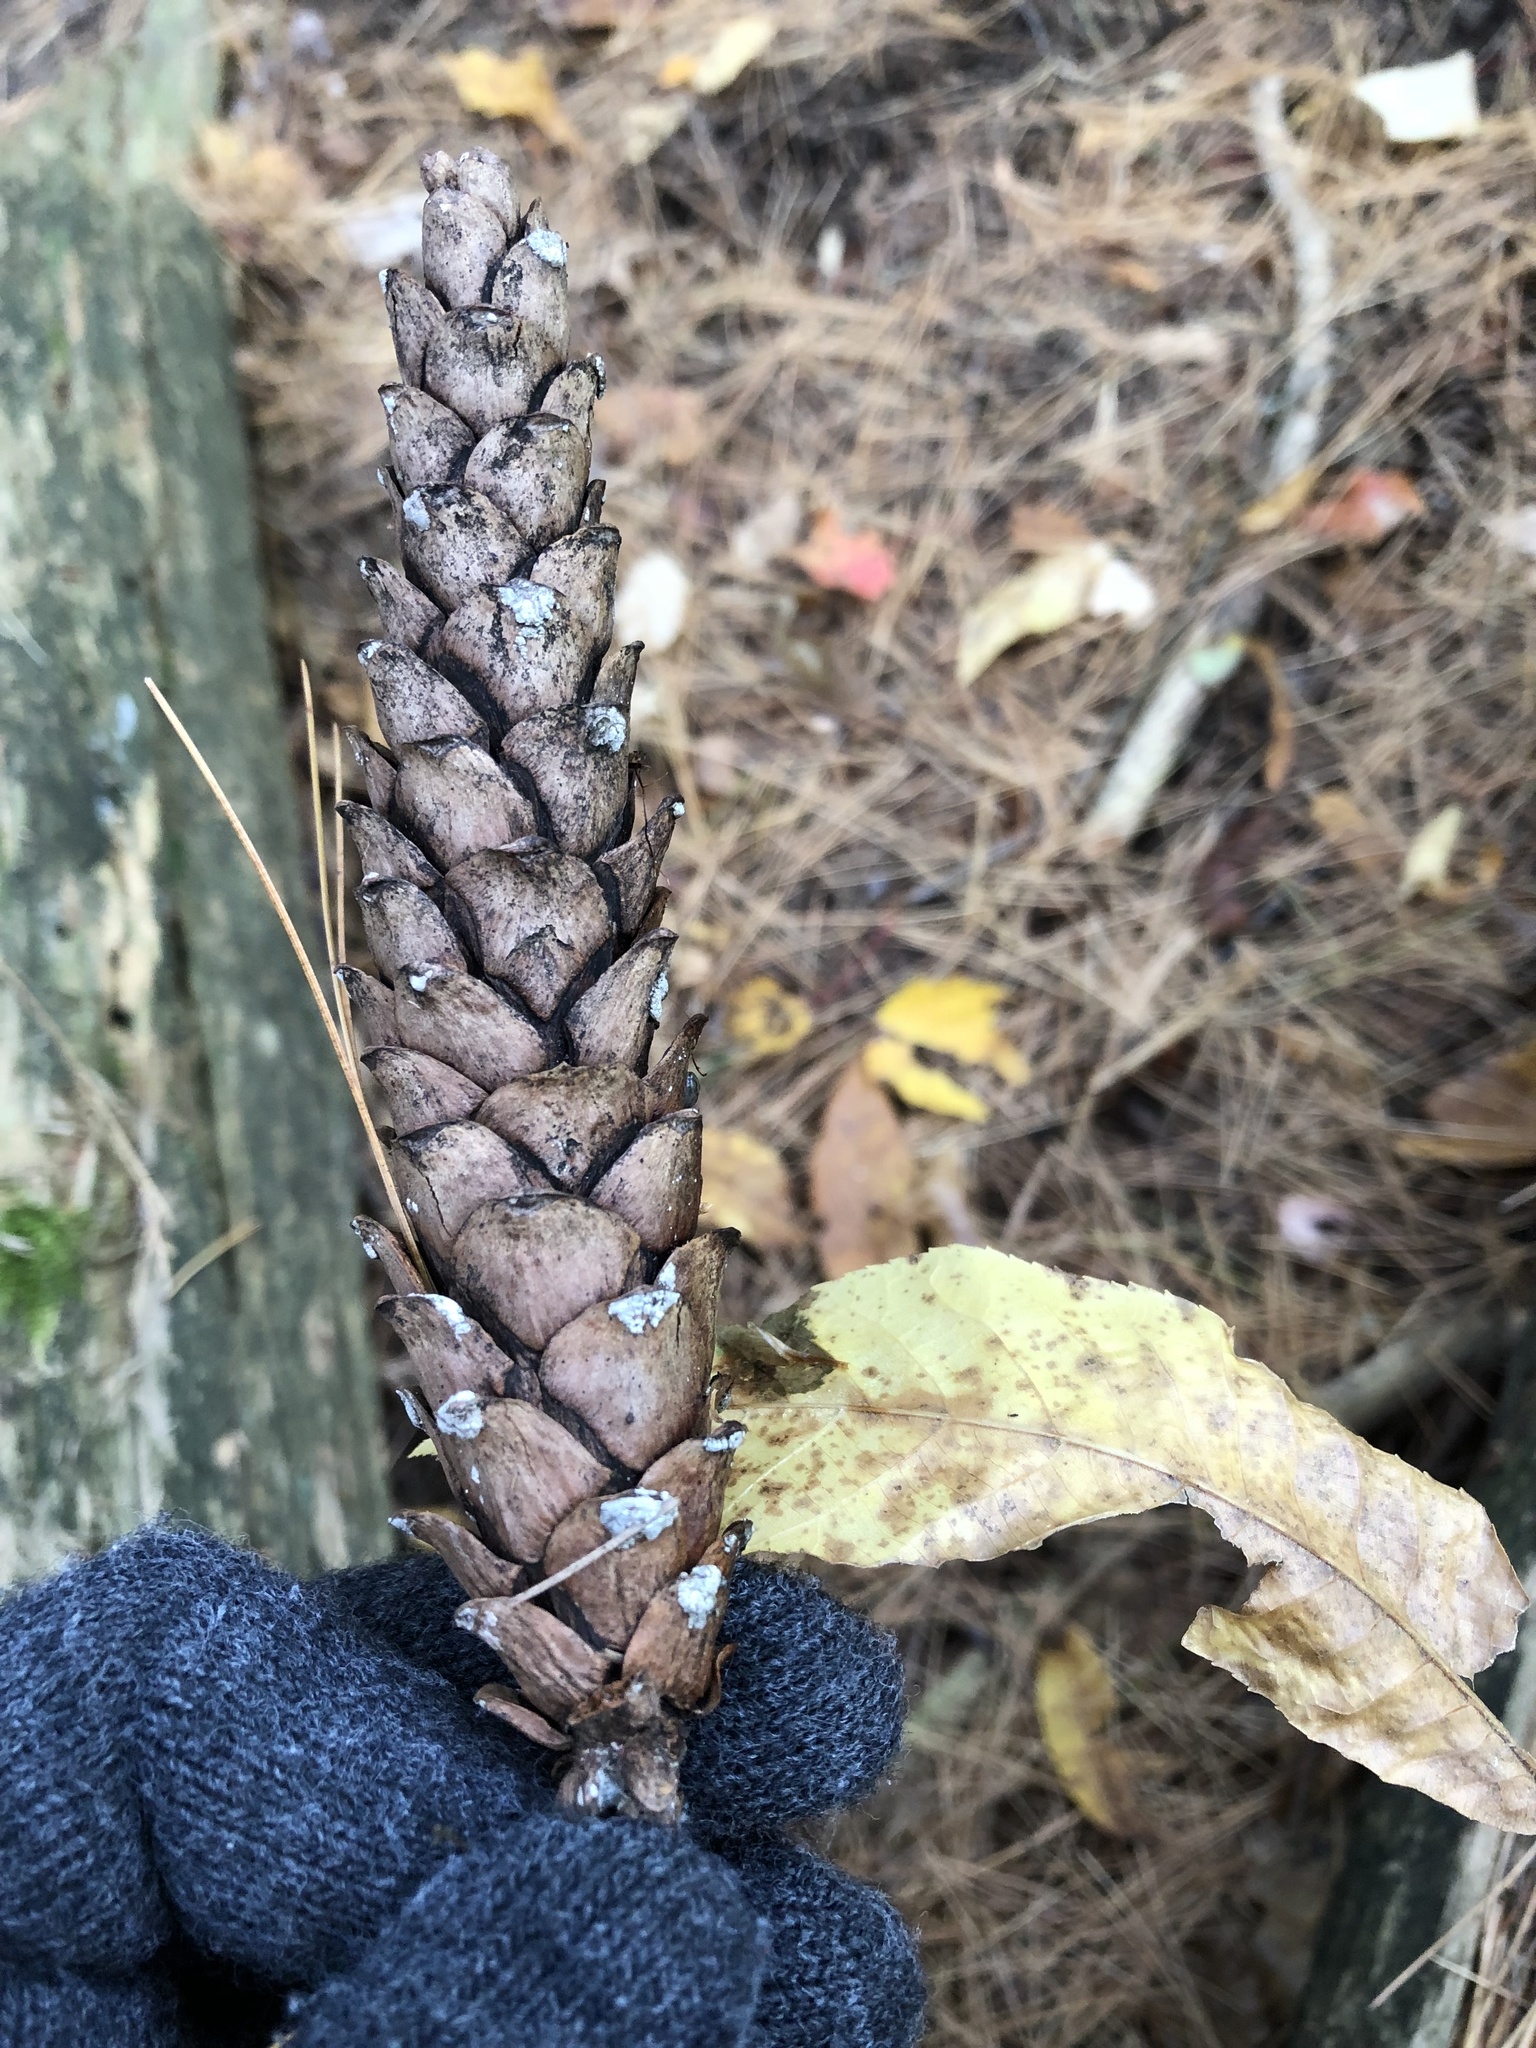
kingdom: Plantae
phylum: Tracheophyta
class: Pinopsida
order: Pinales
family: Pinaceae
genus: Pinus
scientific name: Pinus strobus
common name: Weymouth pine
